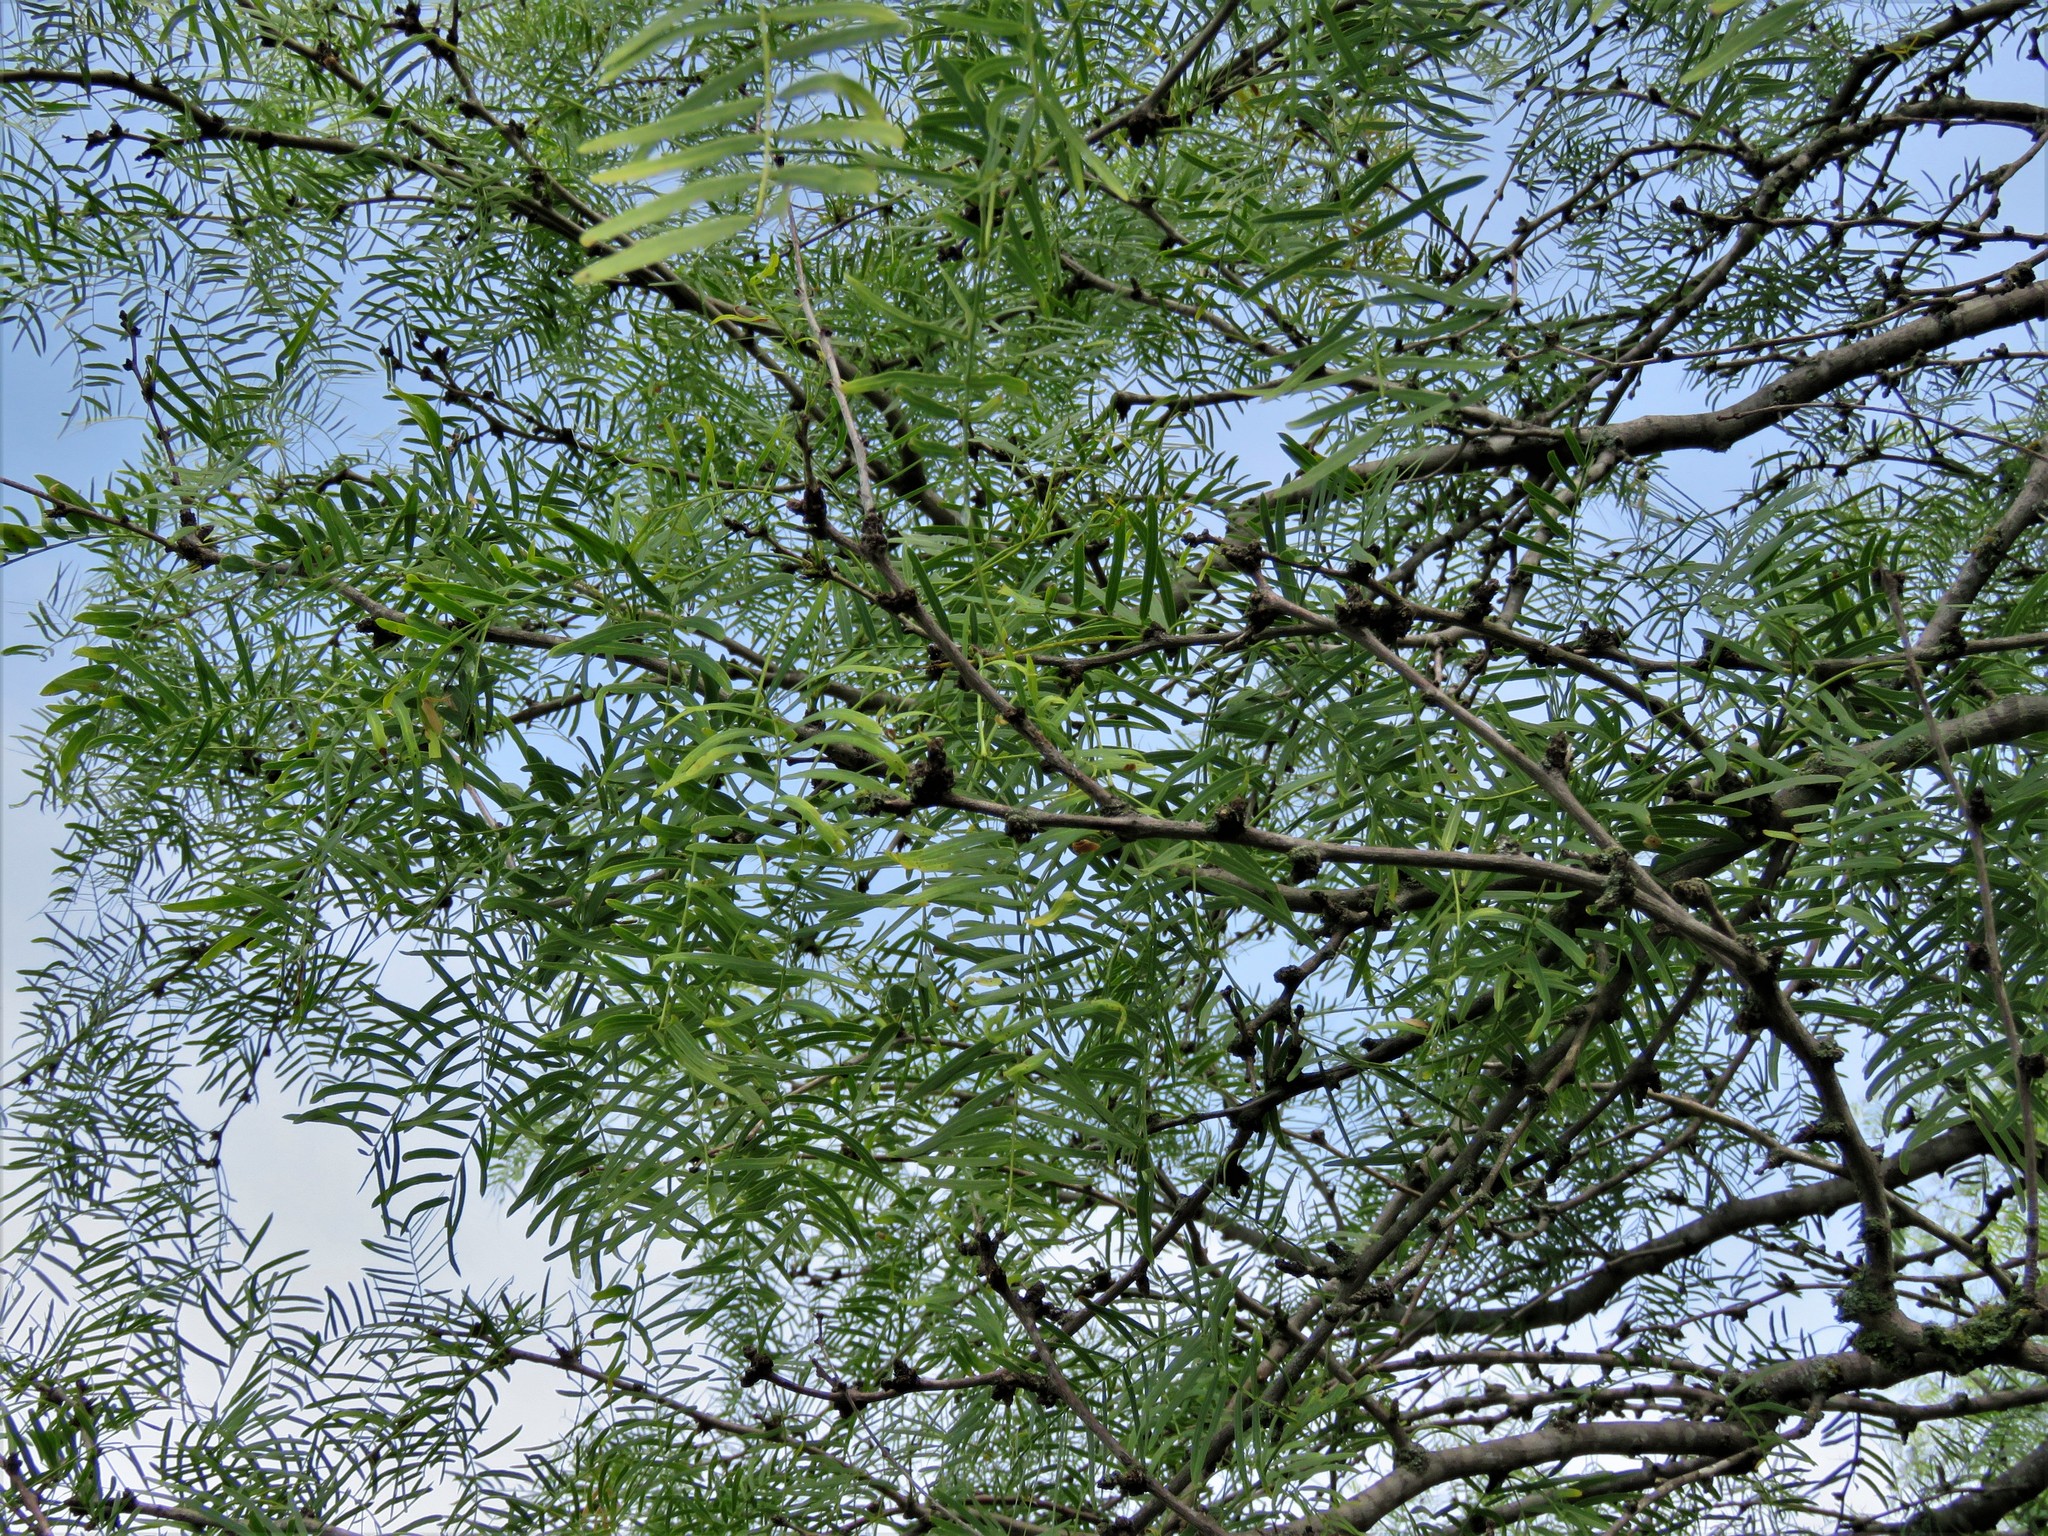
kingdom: Plantae
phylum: Tracheophyta
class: Magnoliopsida
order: Fabales
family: Fabaceae
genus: Prosopis
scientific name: Prosopis glandulosa
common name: Honey mesquite
